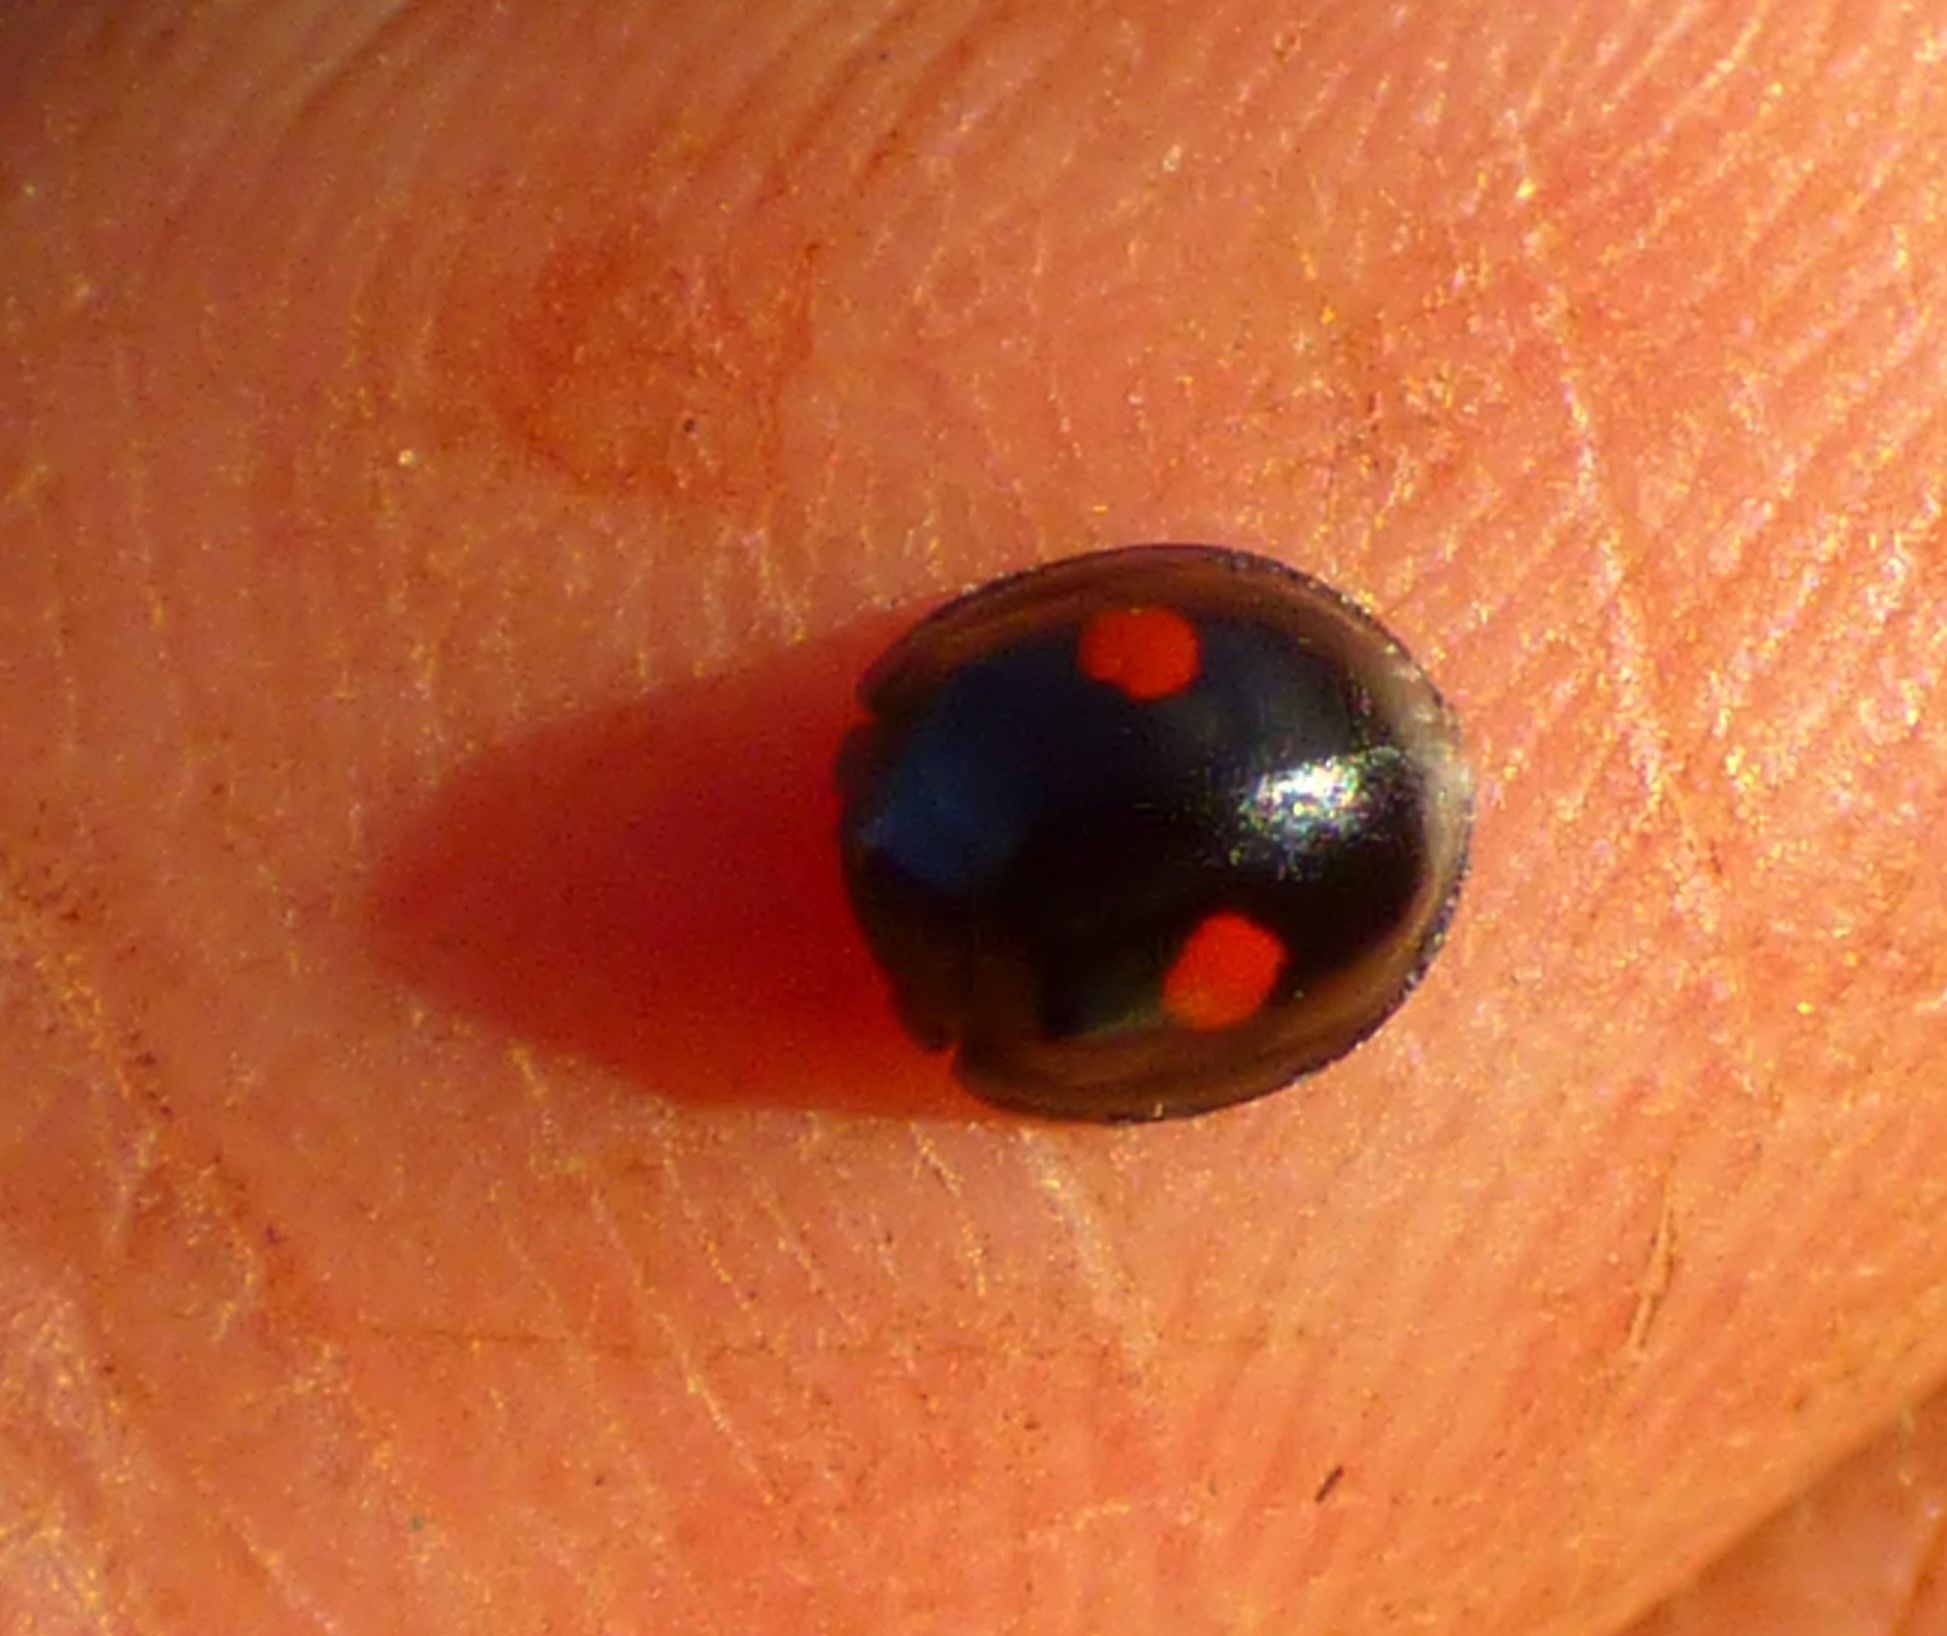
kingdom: Animalia
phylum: Arthropoda
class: Insecta
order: Coleoptera
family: Coccinellidae
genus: Chilocorus
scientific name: Chilocorus stigma
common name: Twicestabbed lady beetle
